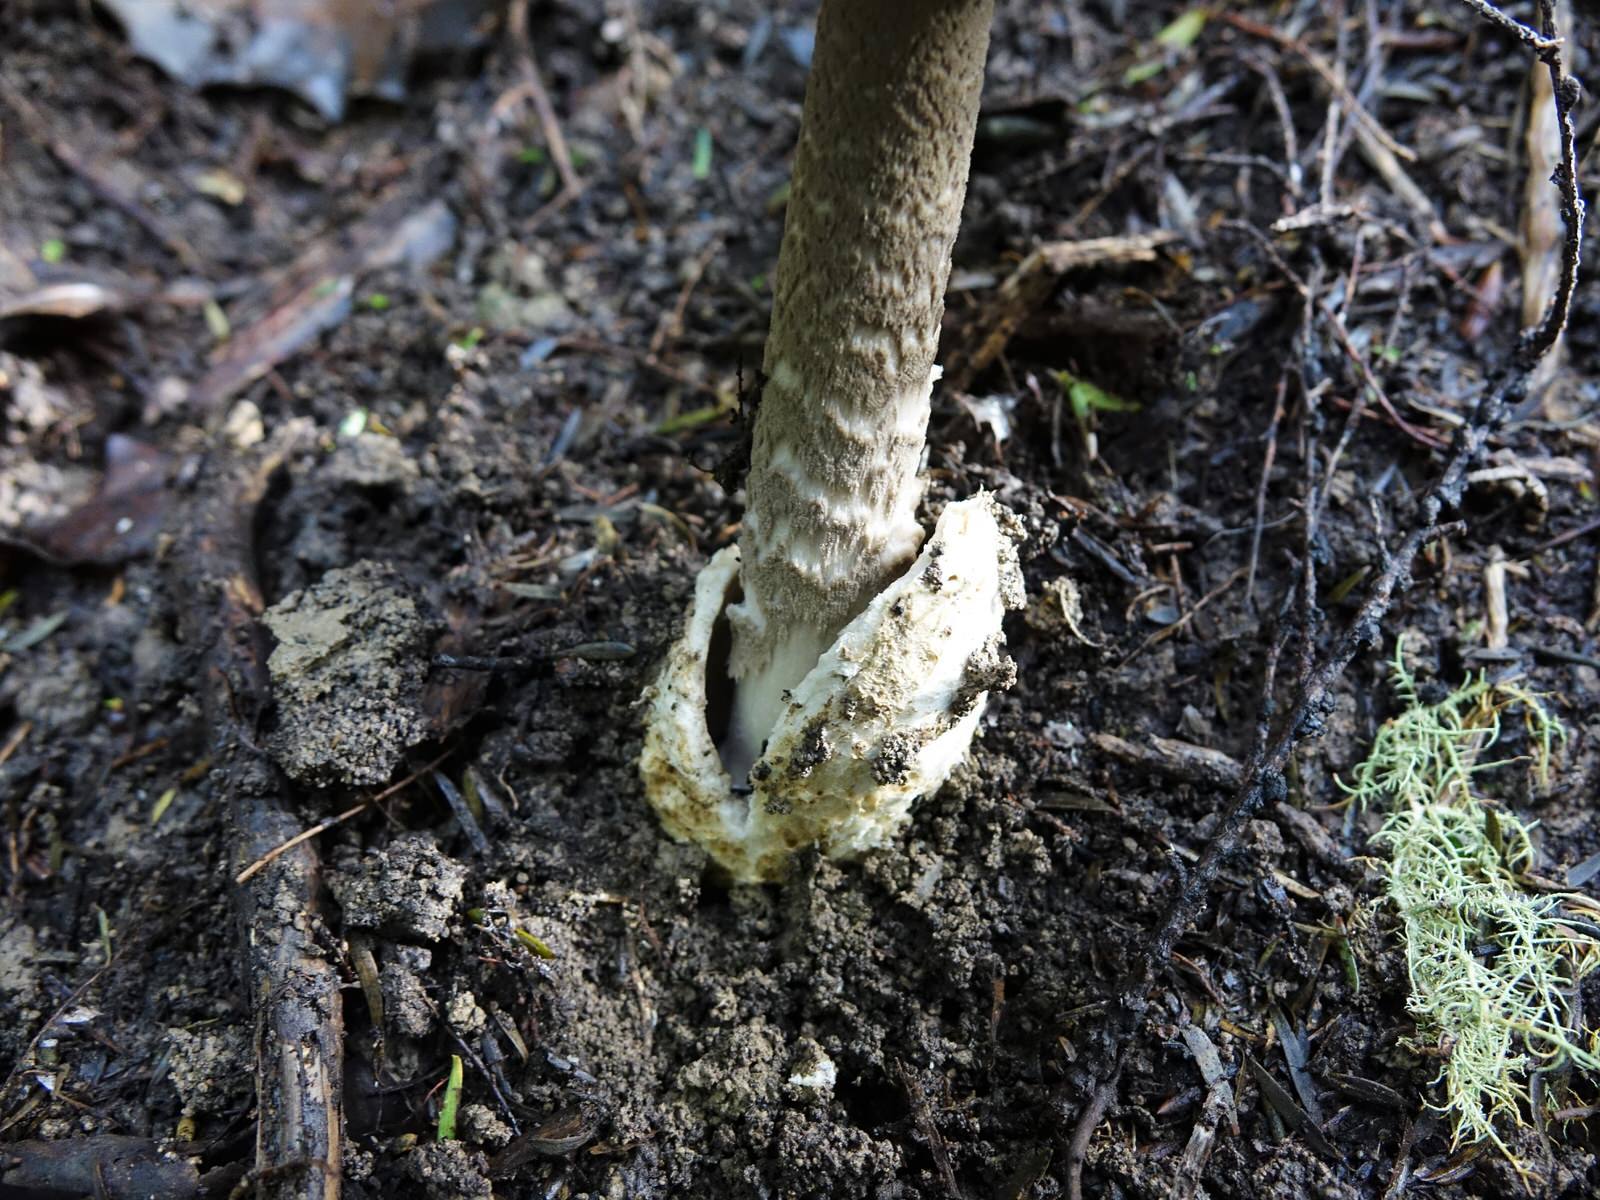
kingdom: Fungi
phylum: Basidiomycota
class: Agaricomycetes
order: Agaricales
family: Amanitaceae
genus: Amanita
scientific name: Amanita pekeoides
